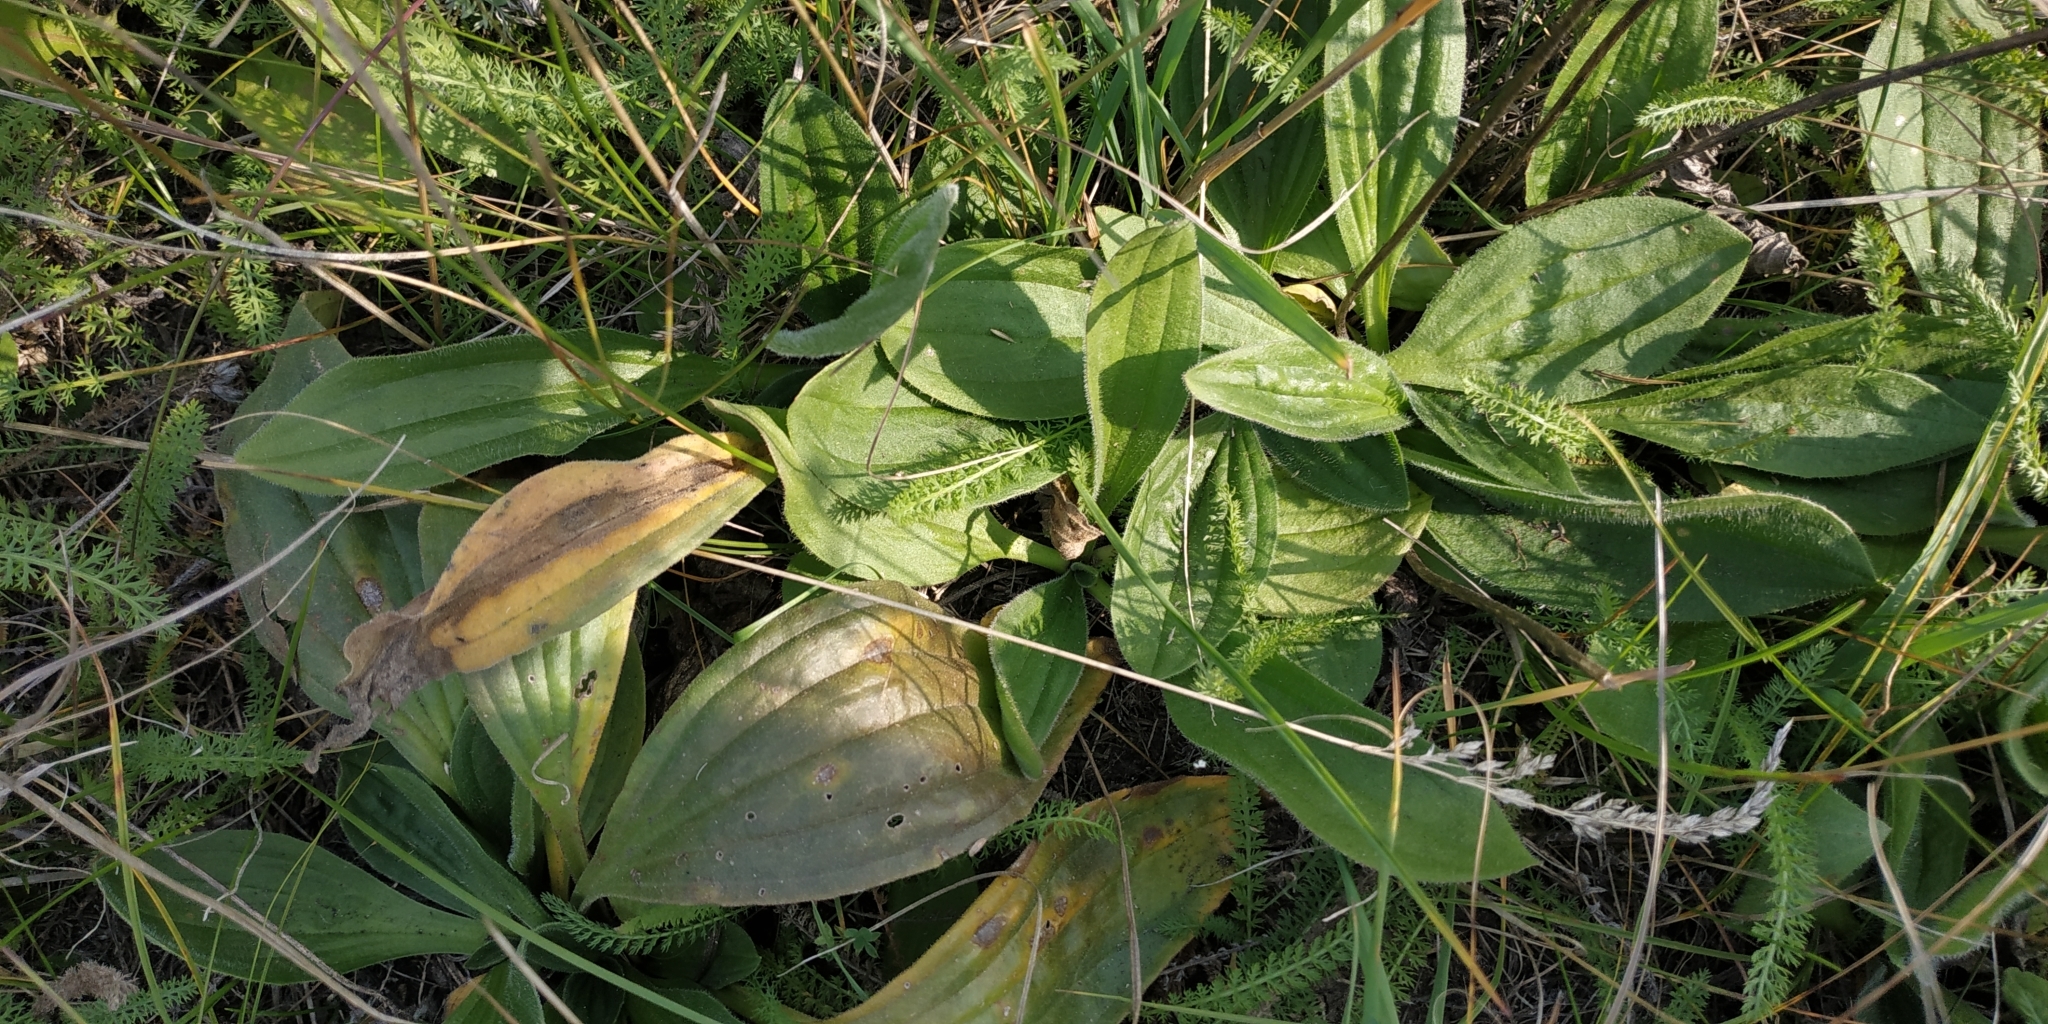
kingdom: Plantae
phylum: Tracheophyta
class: Magnoliopsida
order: Lamiales
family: Plantaginaceae
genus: Plantago
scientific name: Plantago media
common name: Hoary plantain
